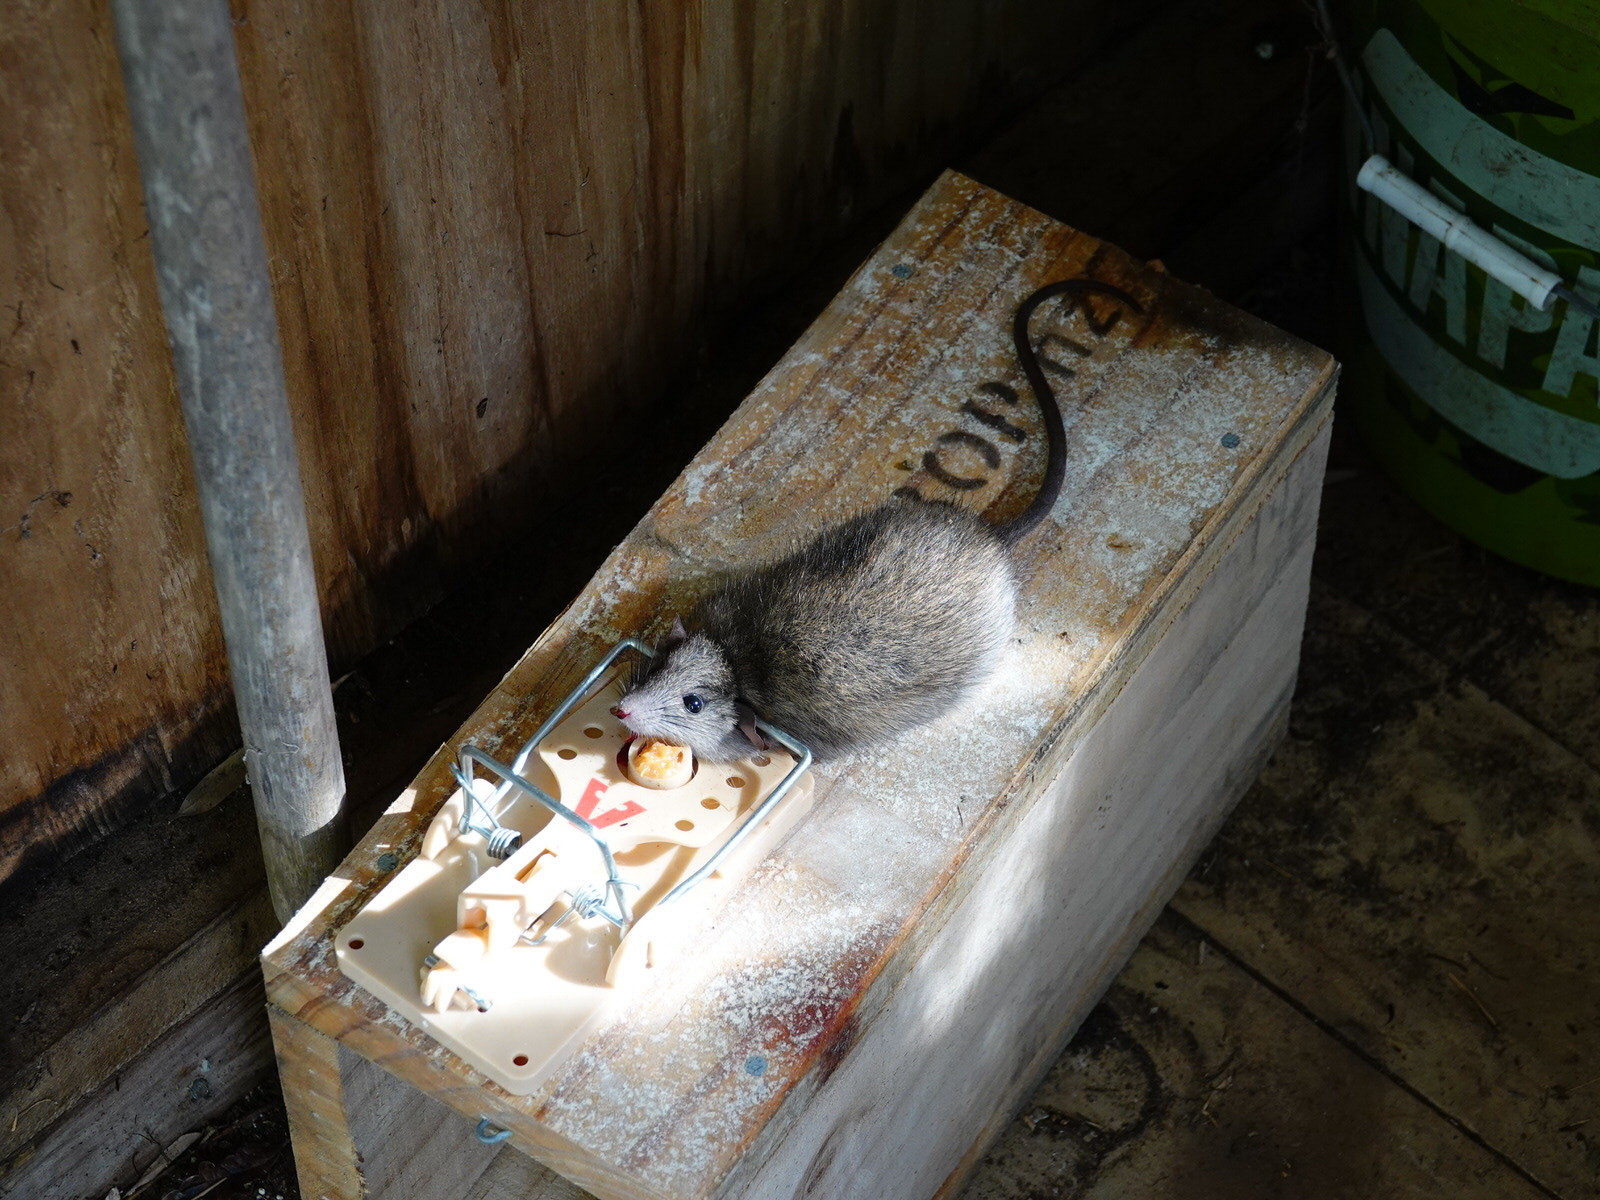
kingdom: Animalia
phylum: Chordata
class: Mammalia
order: Rodentia
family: Muridae
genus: Rattus
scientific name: Rattus rattus
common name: Black rat
